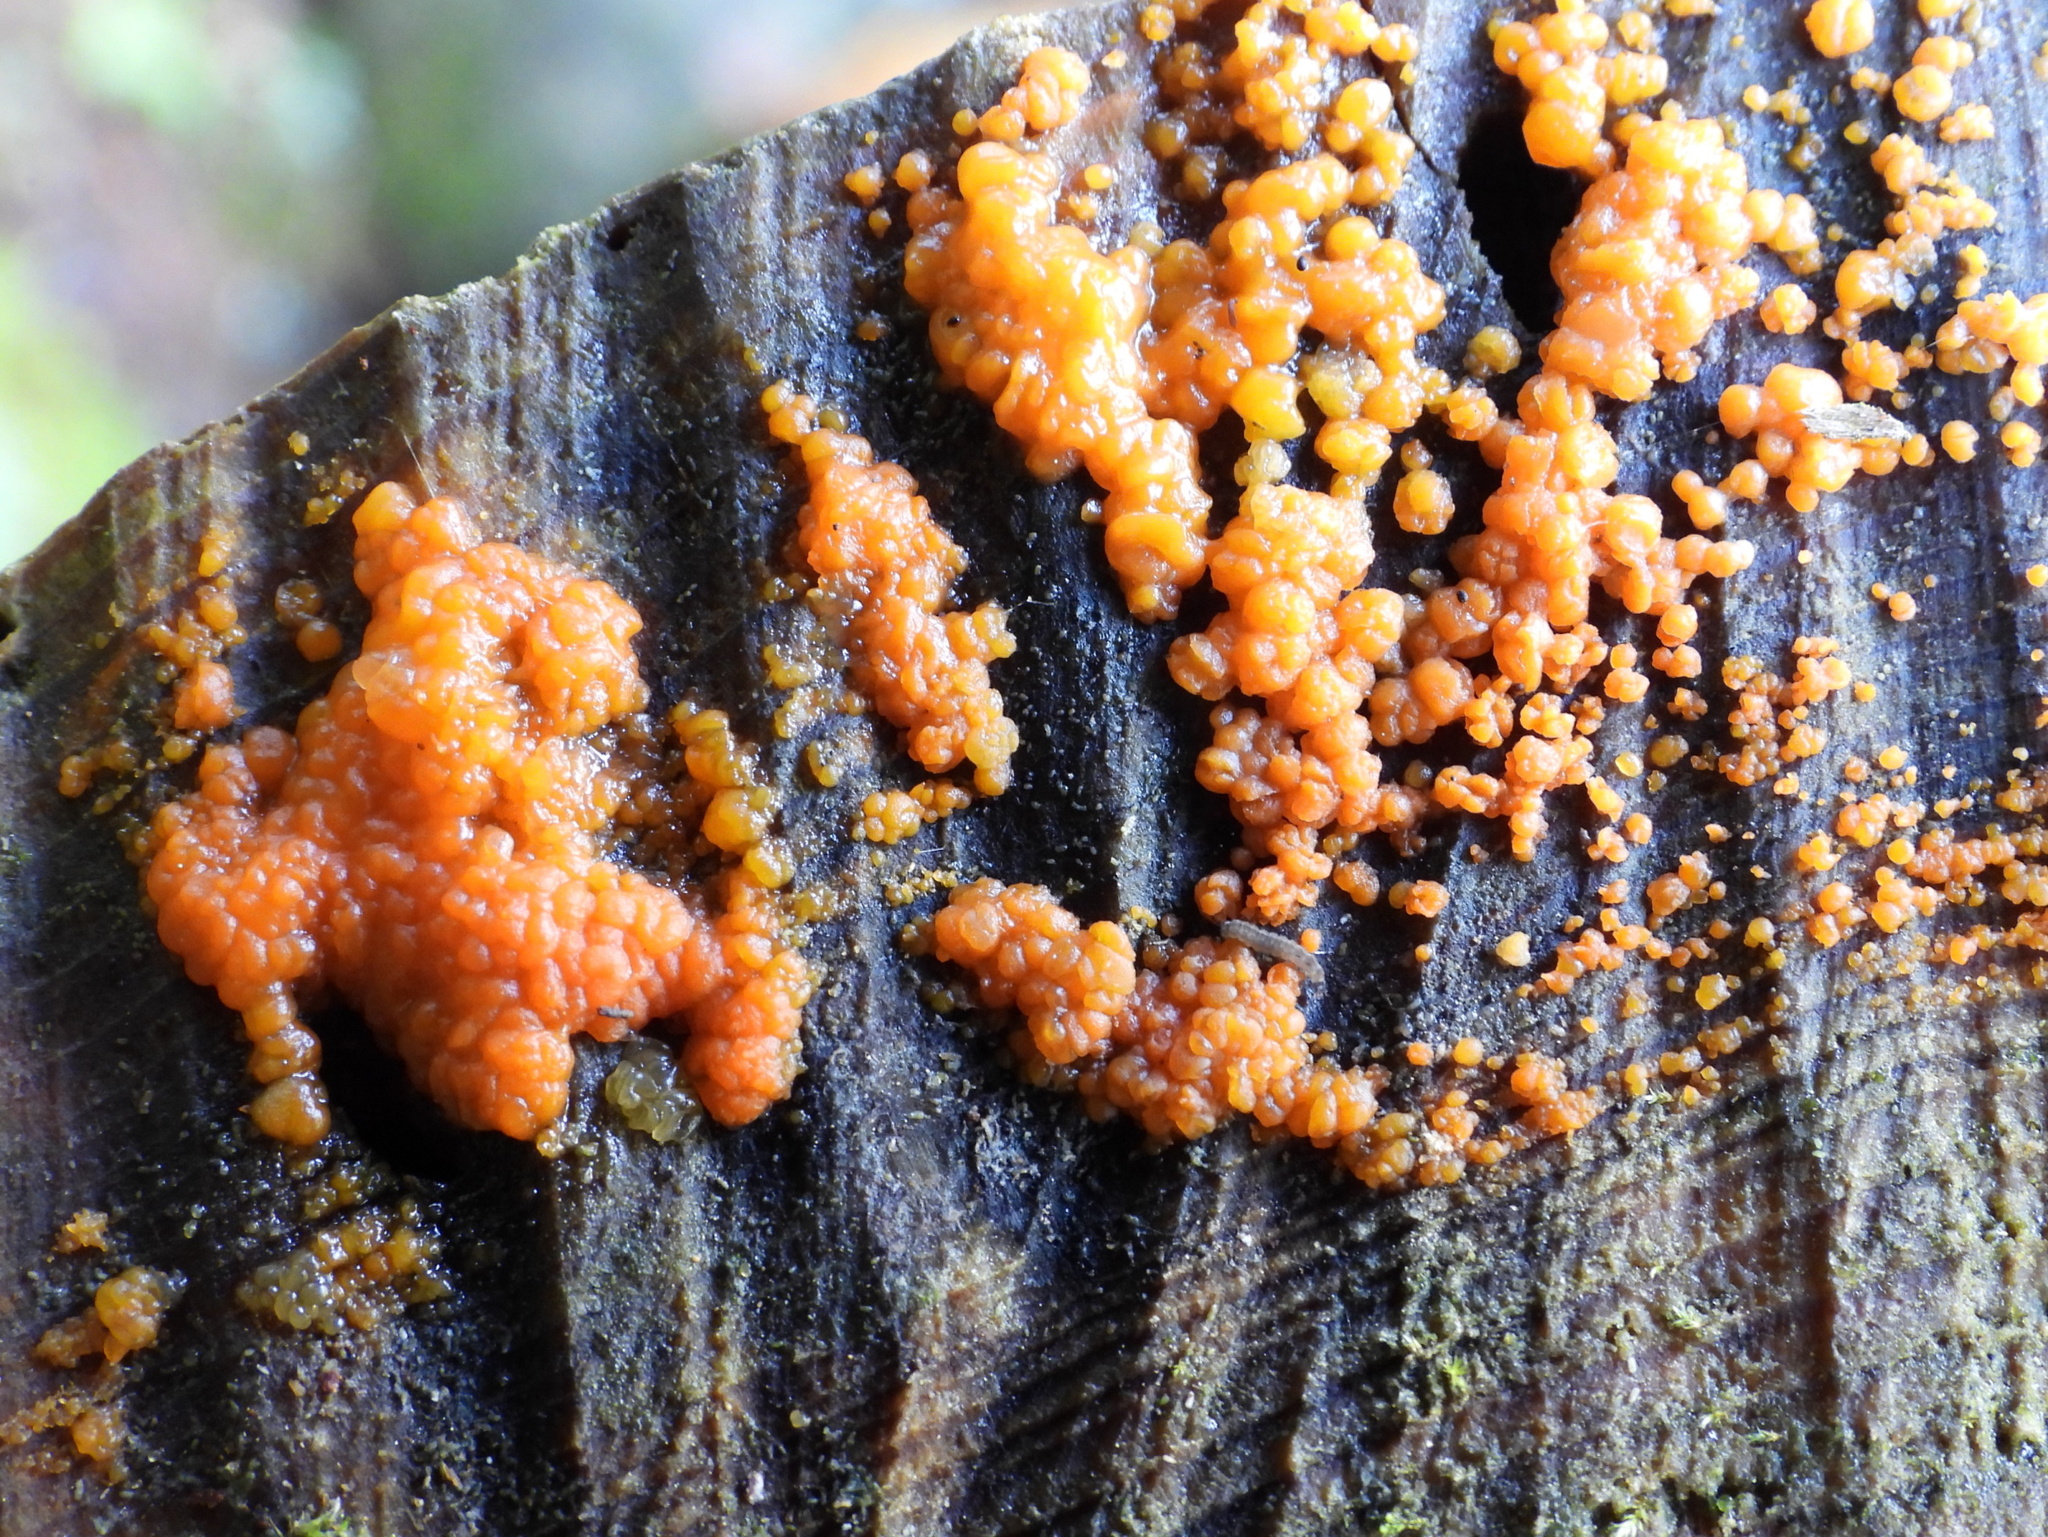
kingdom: Fungi
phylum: Basidiomycota
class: Dacrymycetes
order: Dacrymycetales
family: Dacrymycetaceae
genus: Dacrymyces
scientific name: Dacrymyces stillatus
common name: Common jelly spot
